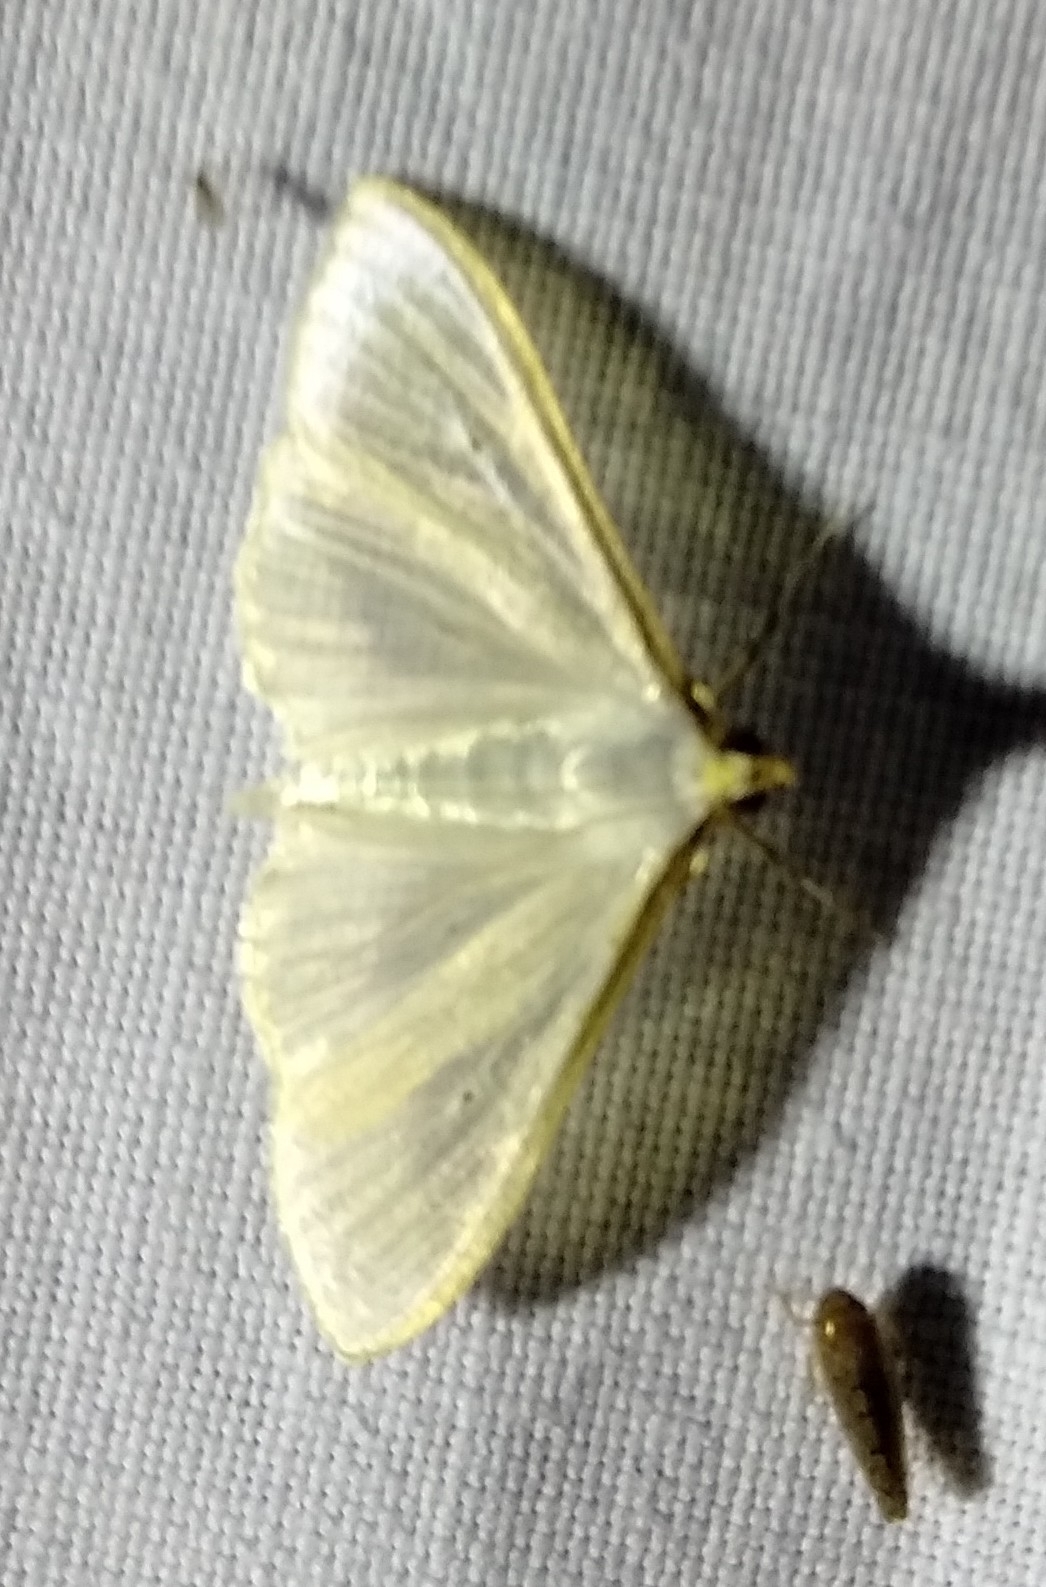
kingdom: Animalia
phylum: Arthropoda
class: Insecta
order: Lepidoptera
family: Crambidae
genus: Palpita
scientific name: Palpita vitrealis
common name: Olive-tree pearl
